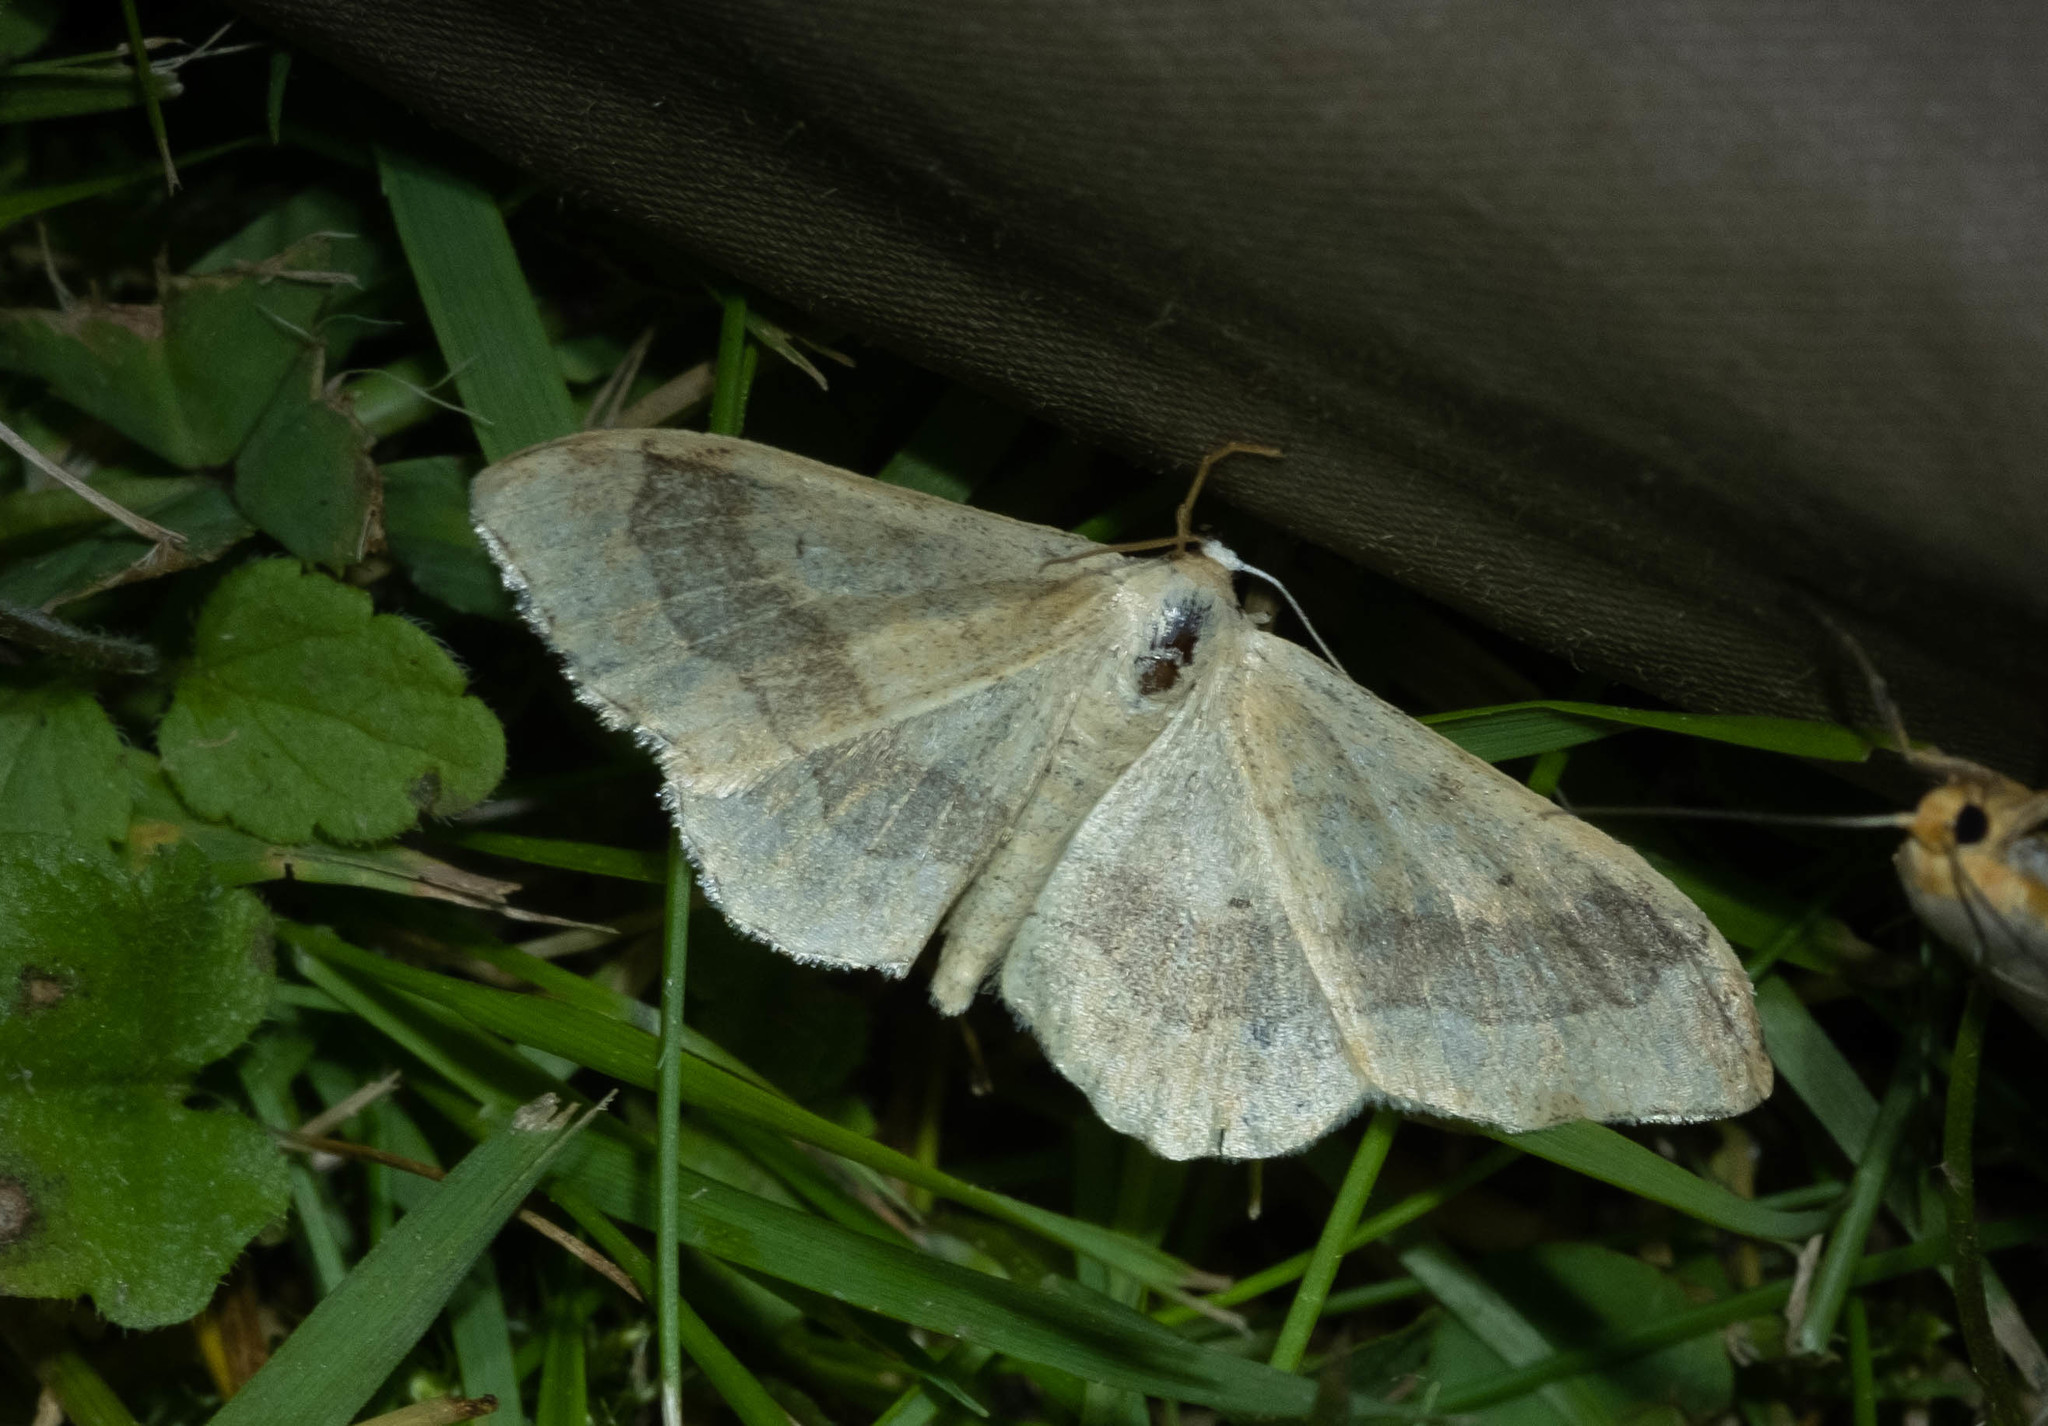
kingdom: Animalia
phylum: Arthropoda
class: Insecta
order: Lepidoptera
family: Geometridae
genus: Idaea
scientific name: Idaea aversata
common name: Riband wave
